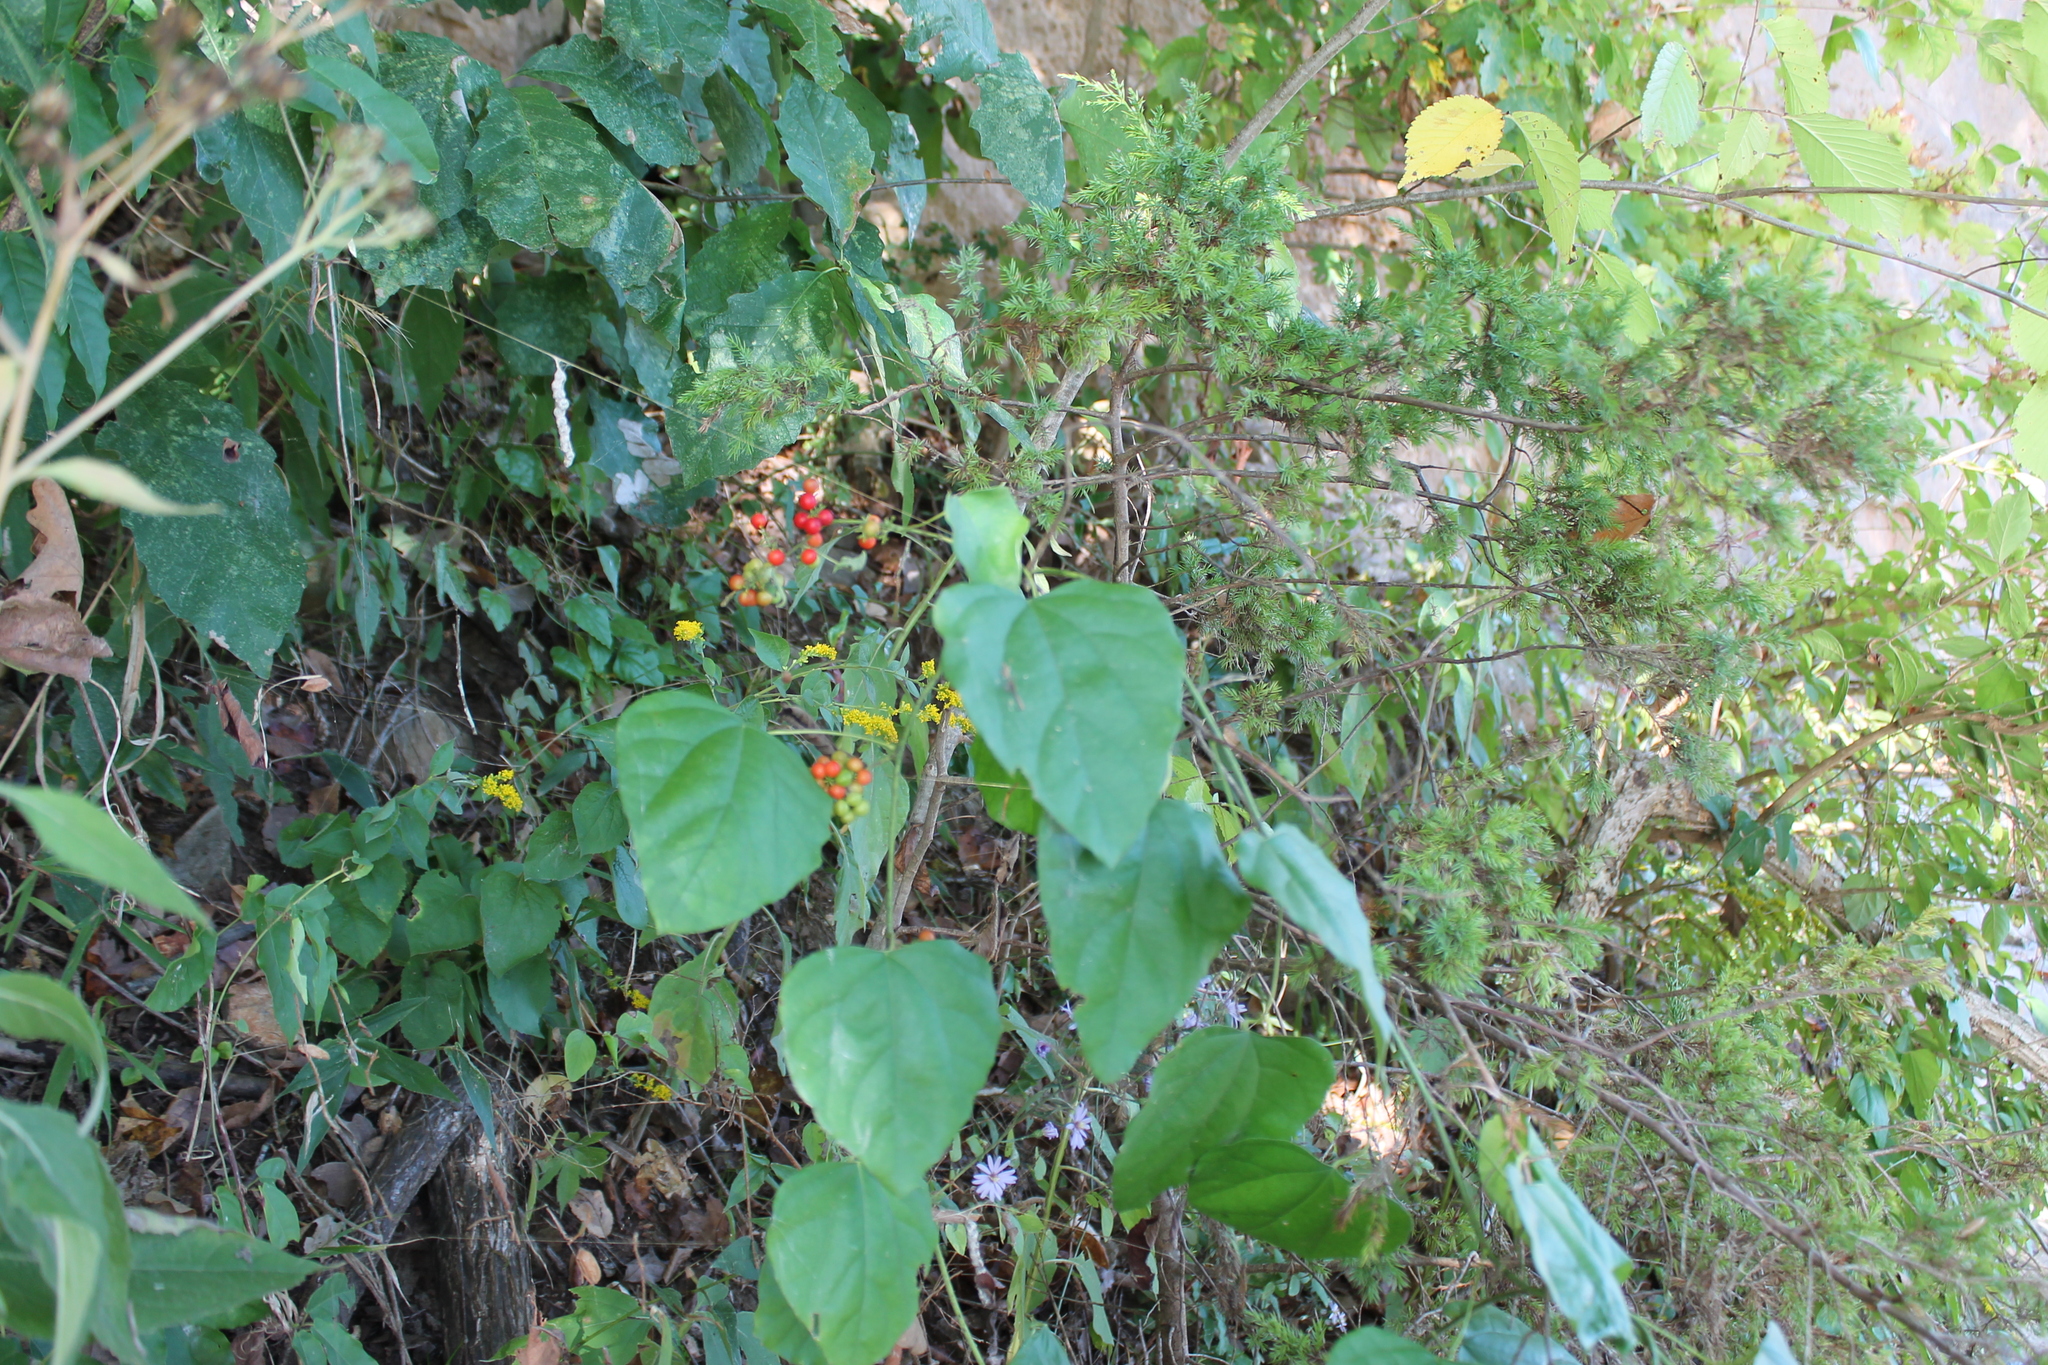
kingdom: Plantae
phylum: Tracheophyta
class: Magnoliopsida
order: Ranunculales
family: Menispermaceae
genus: Cocculus
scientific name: Cocculus carolinus
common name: Carolina moonseed
